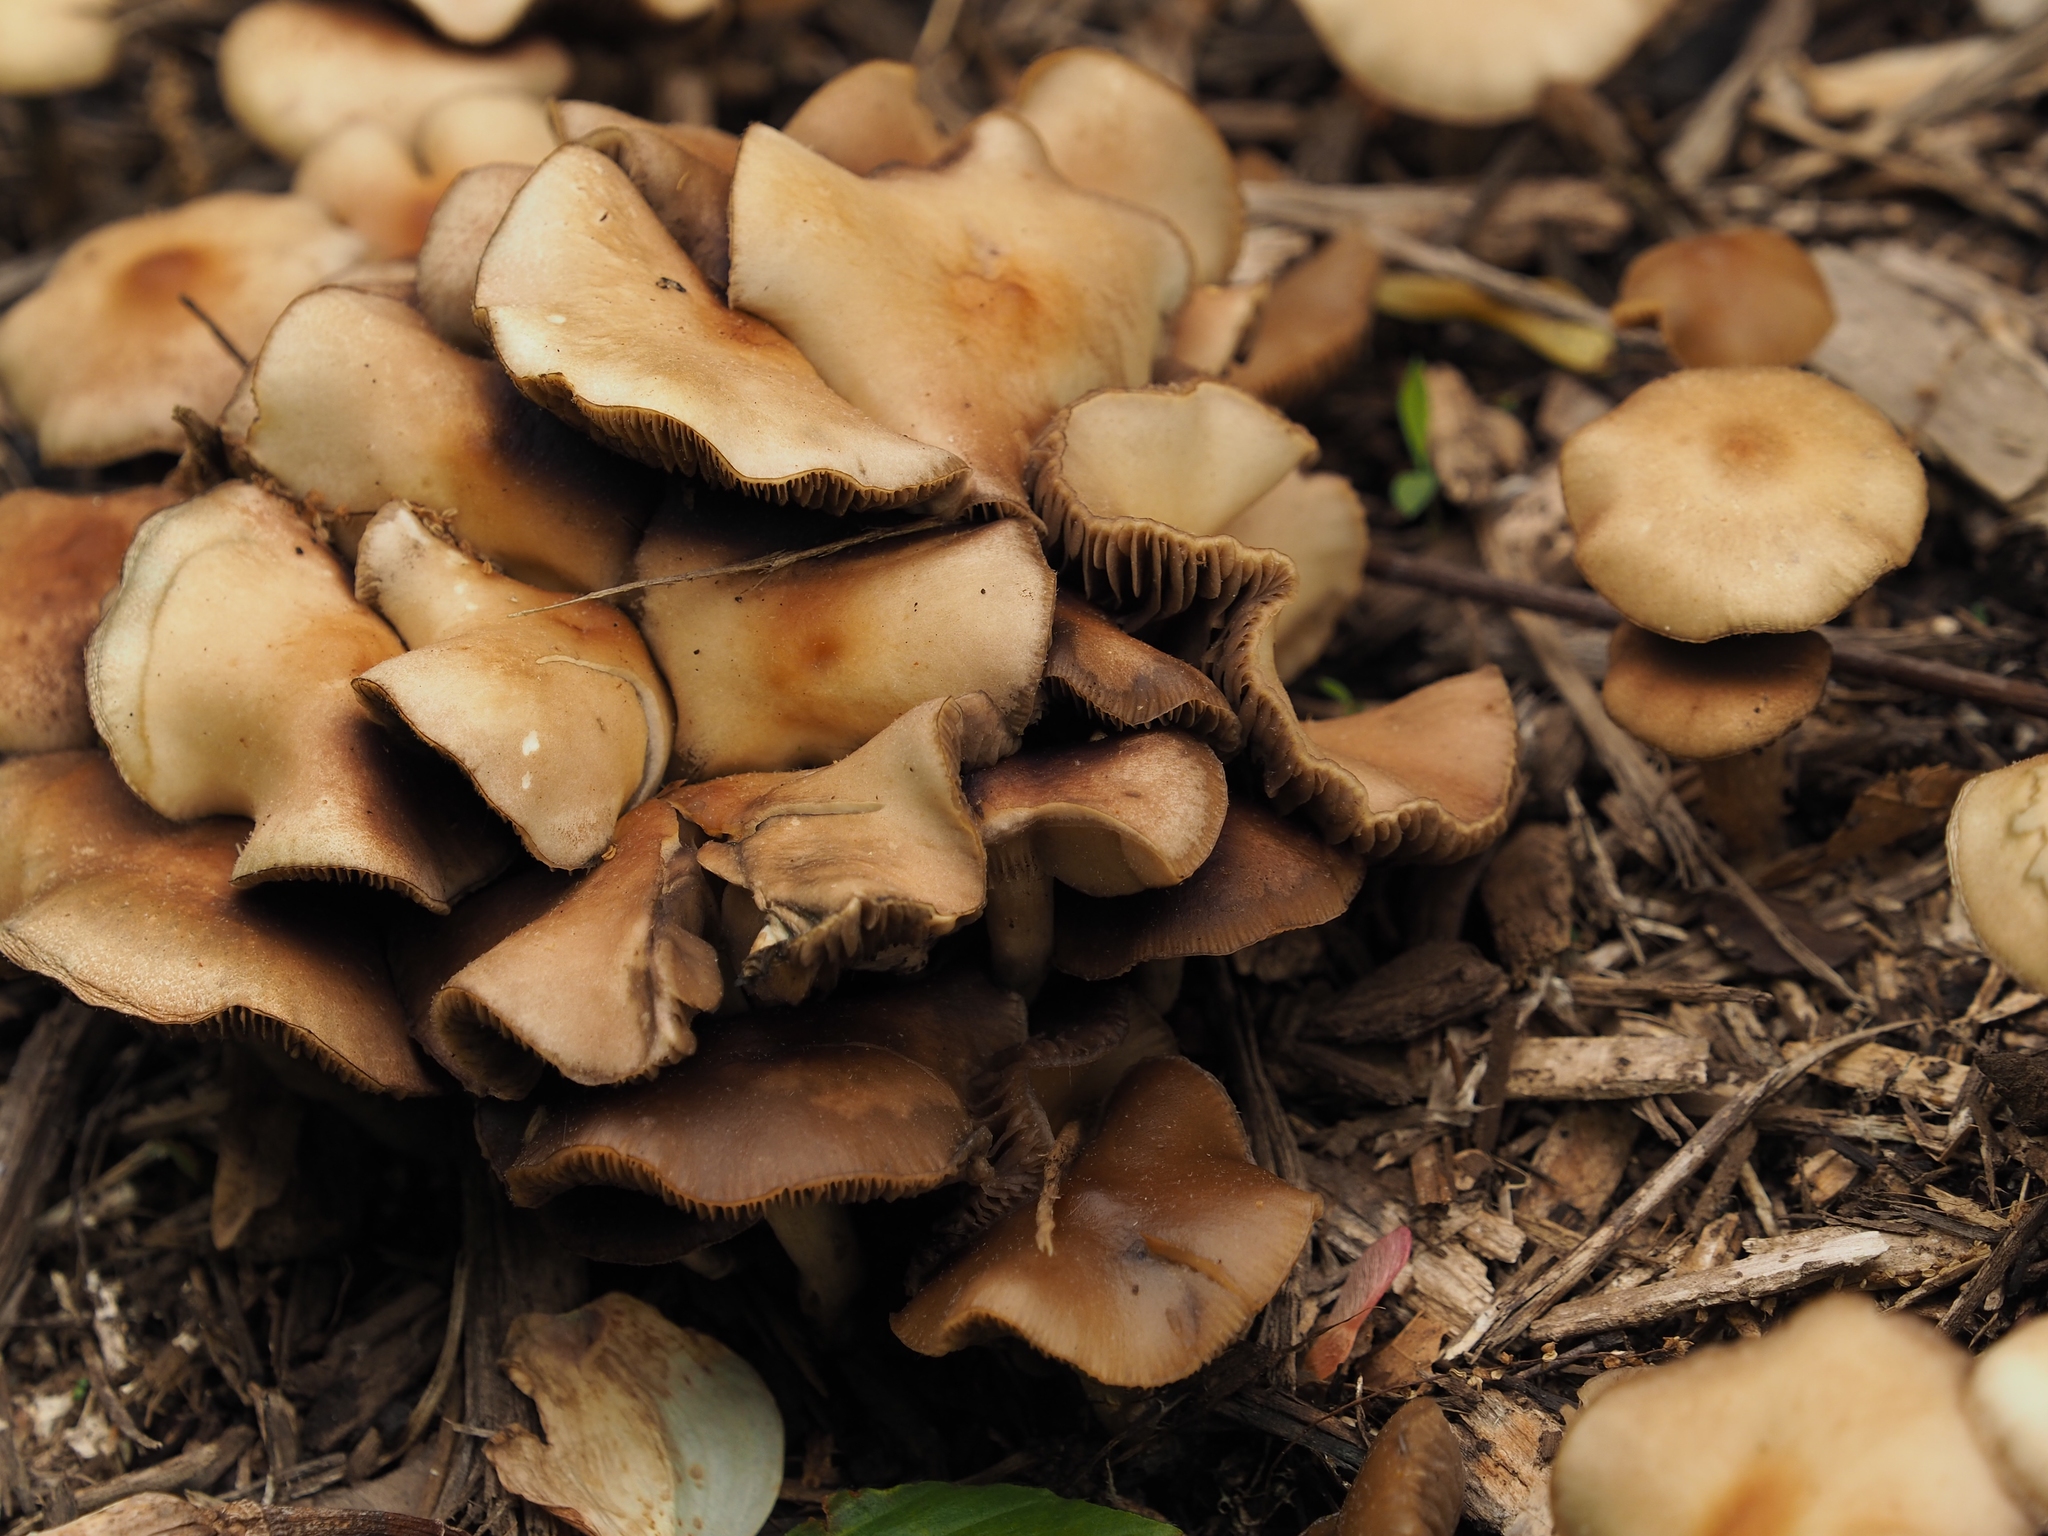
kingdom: Fungi
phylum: Basidiomycota
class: Agaricomycetes
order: Agaricales
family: Hymenogastraceae
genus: Psilocybe
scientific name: Psilocybe ovoideocystidiata
